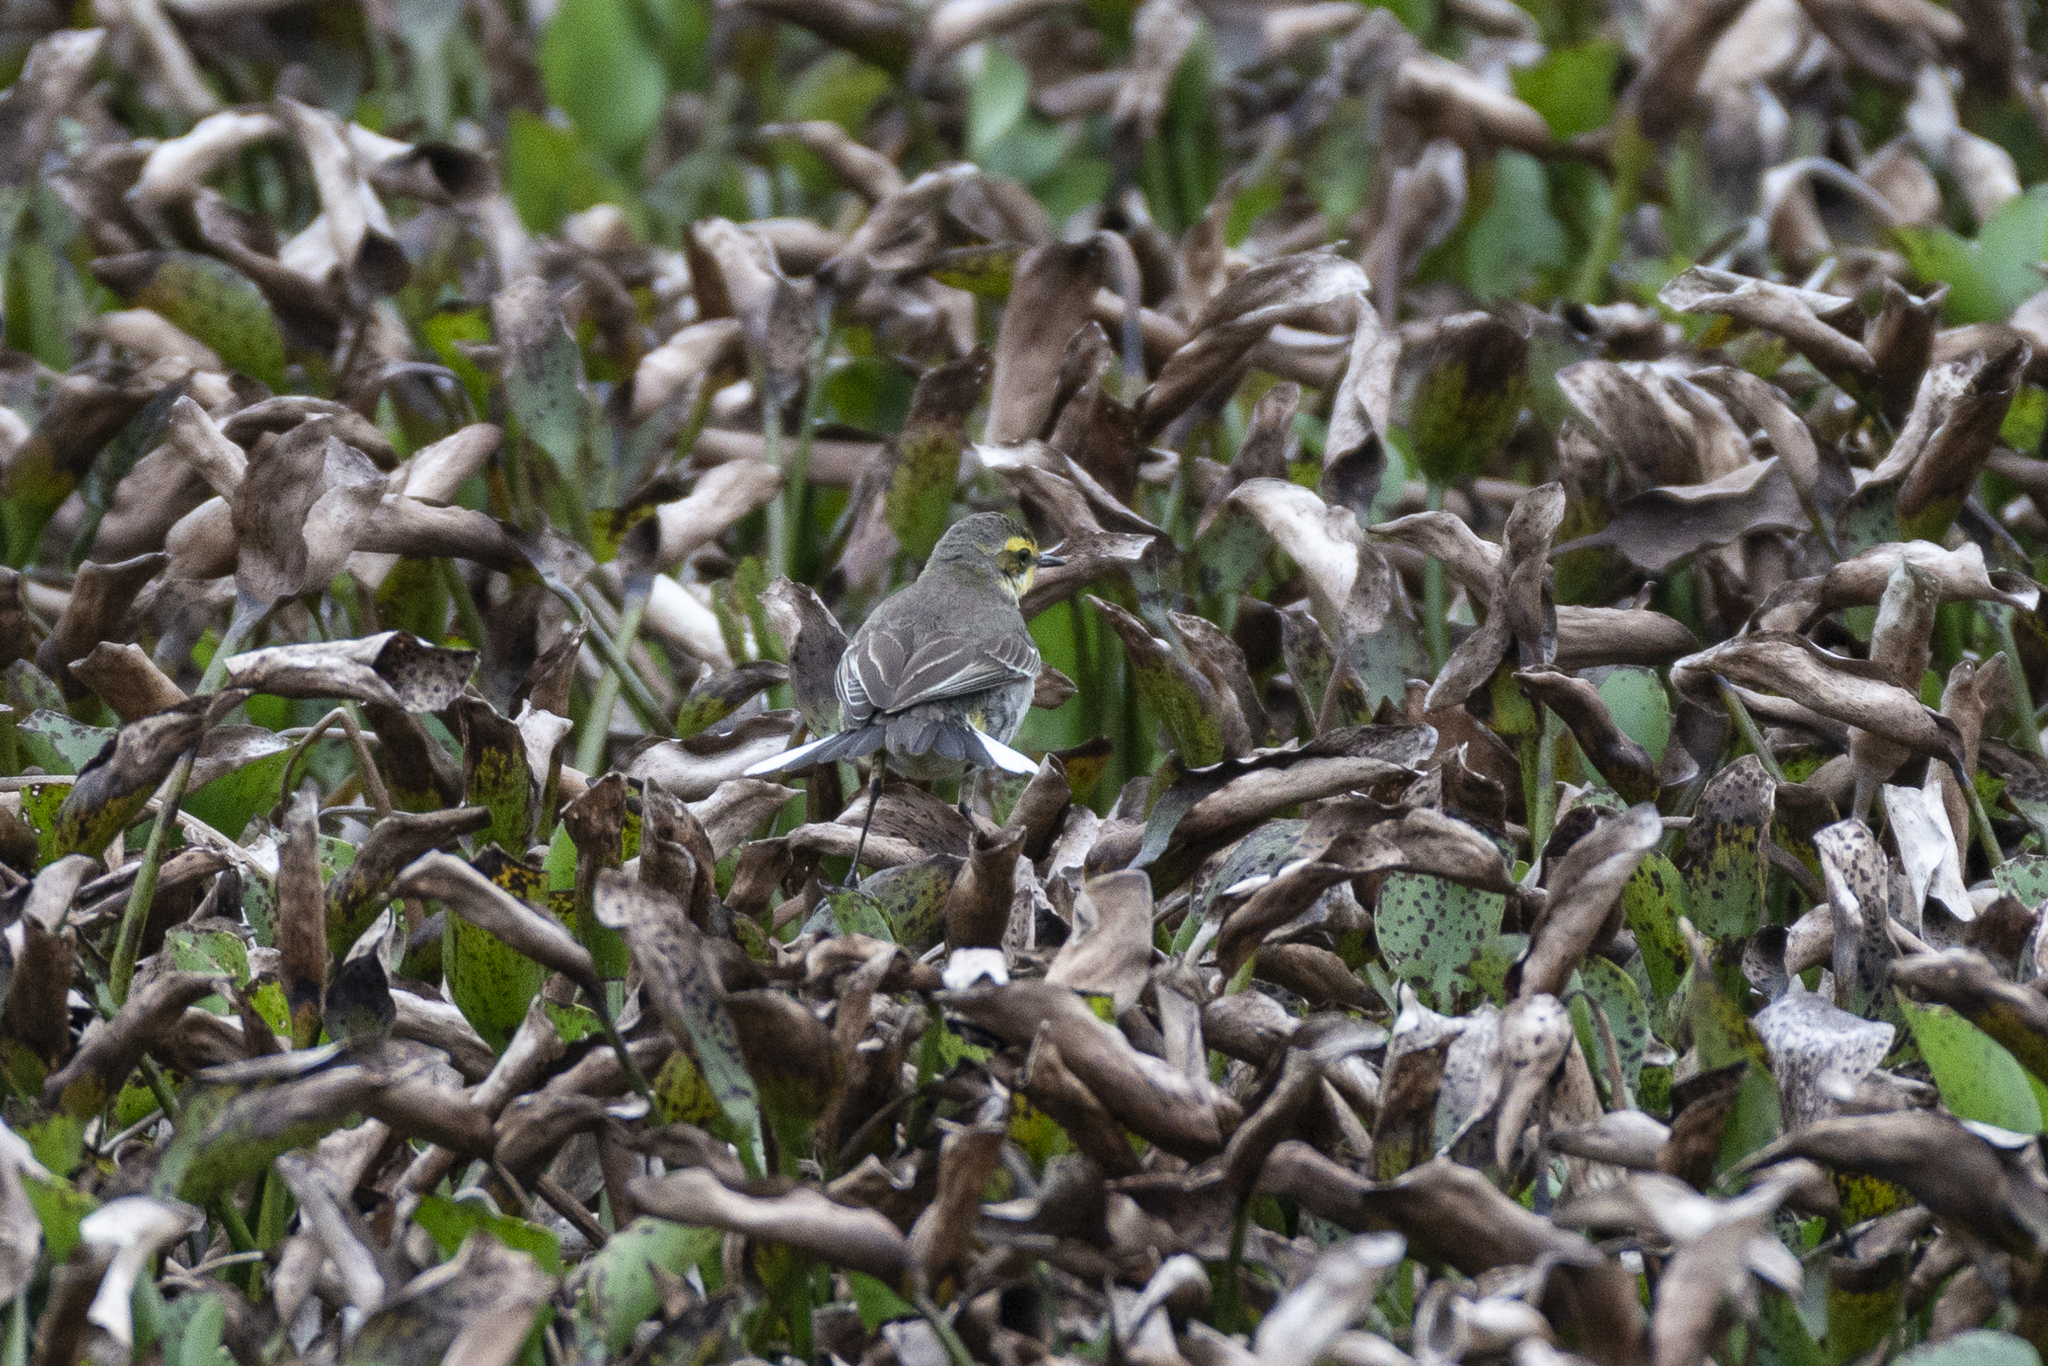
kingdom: Animalia
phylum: Chordata
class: Aves
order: Passeriformes
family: Motacillidae
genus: Motacilla
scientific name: Motacilla tschutschensis
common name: Eastern yellow wagtail
